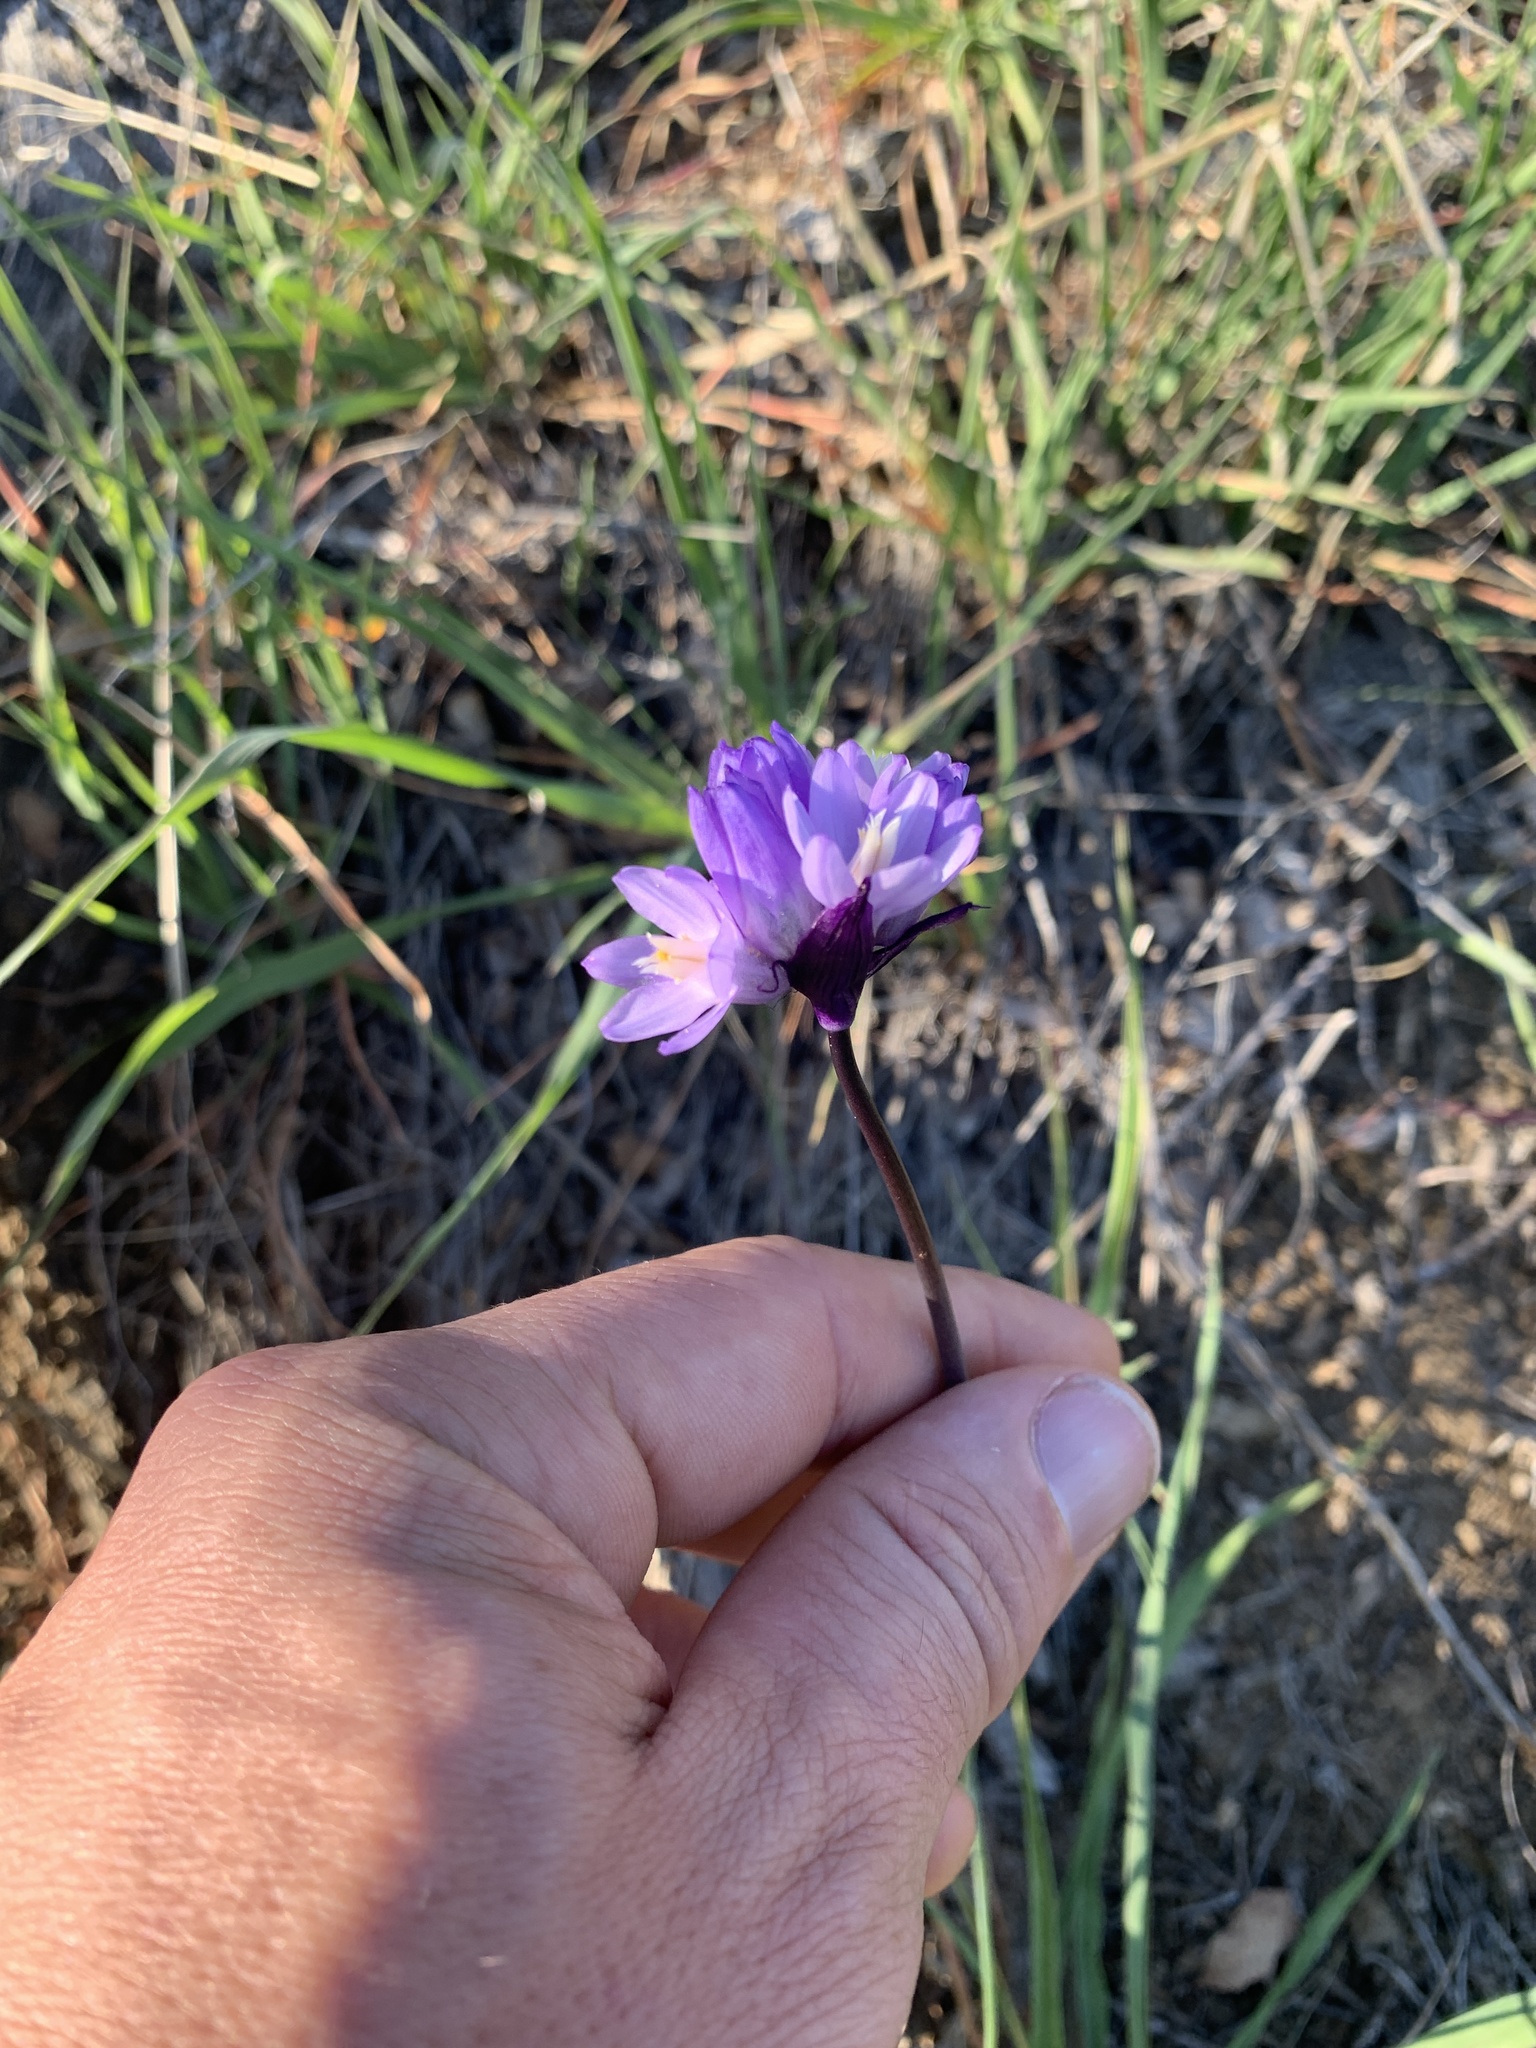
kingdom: Plantae
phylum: Tracheophyta
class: Liliopsida
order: Asparagales
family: Asparagaceae
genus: Dipterostemon
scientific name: Dipterostemon capitatus
